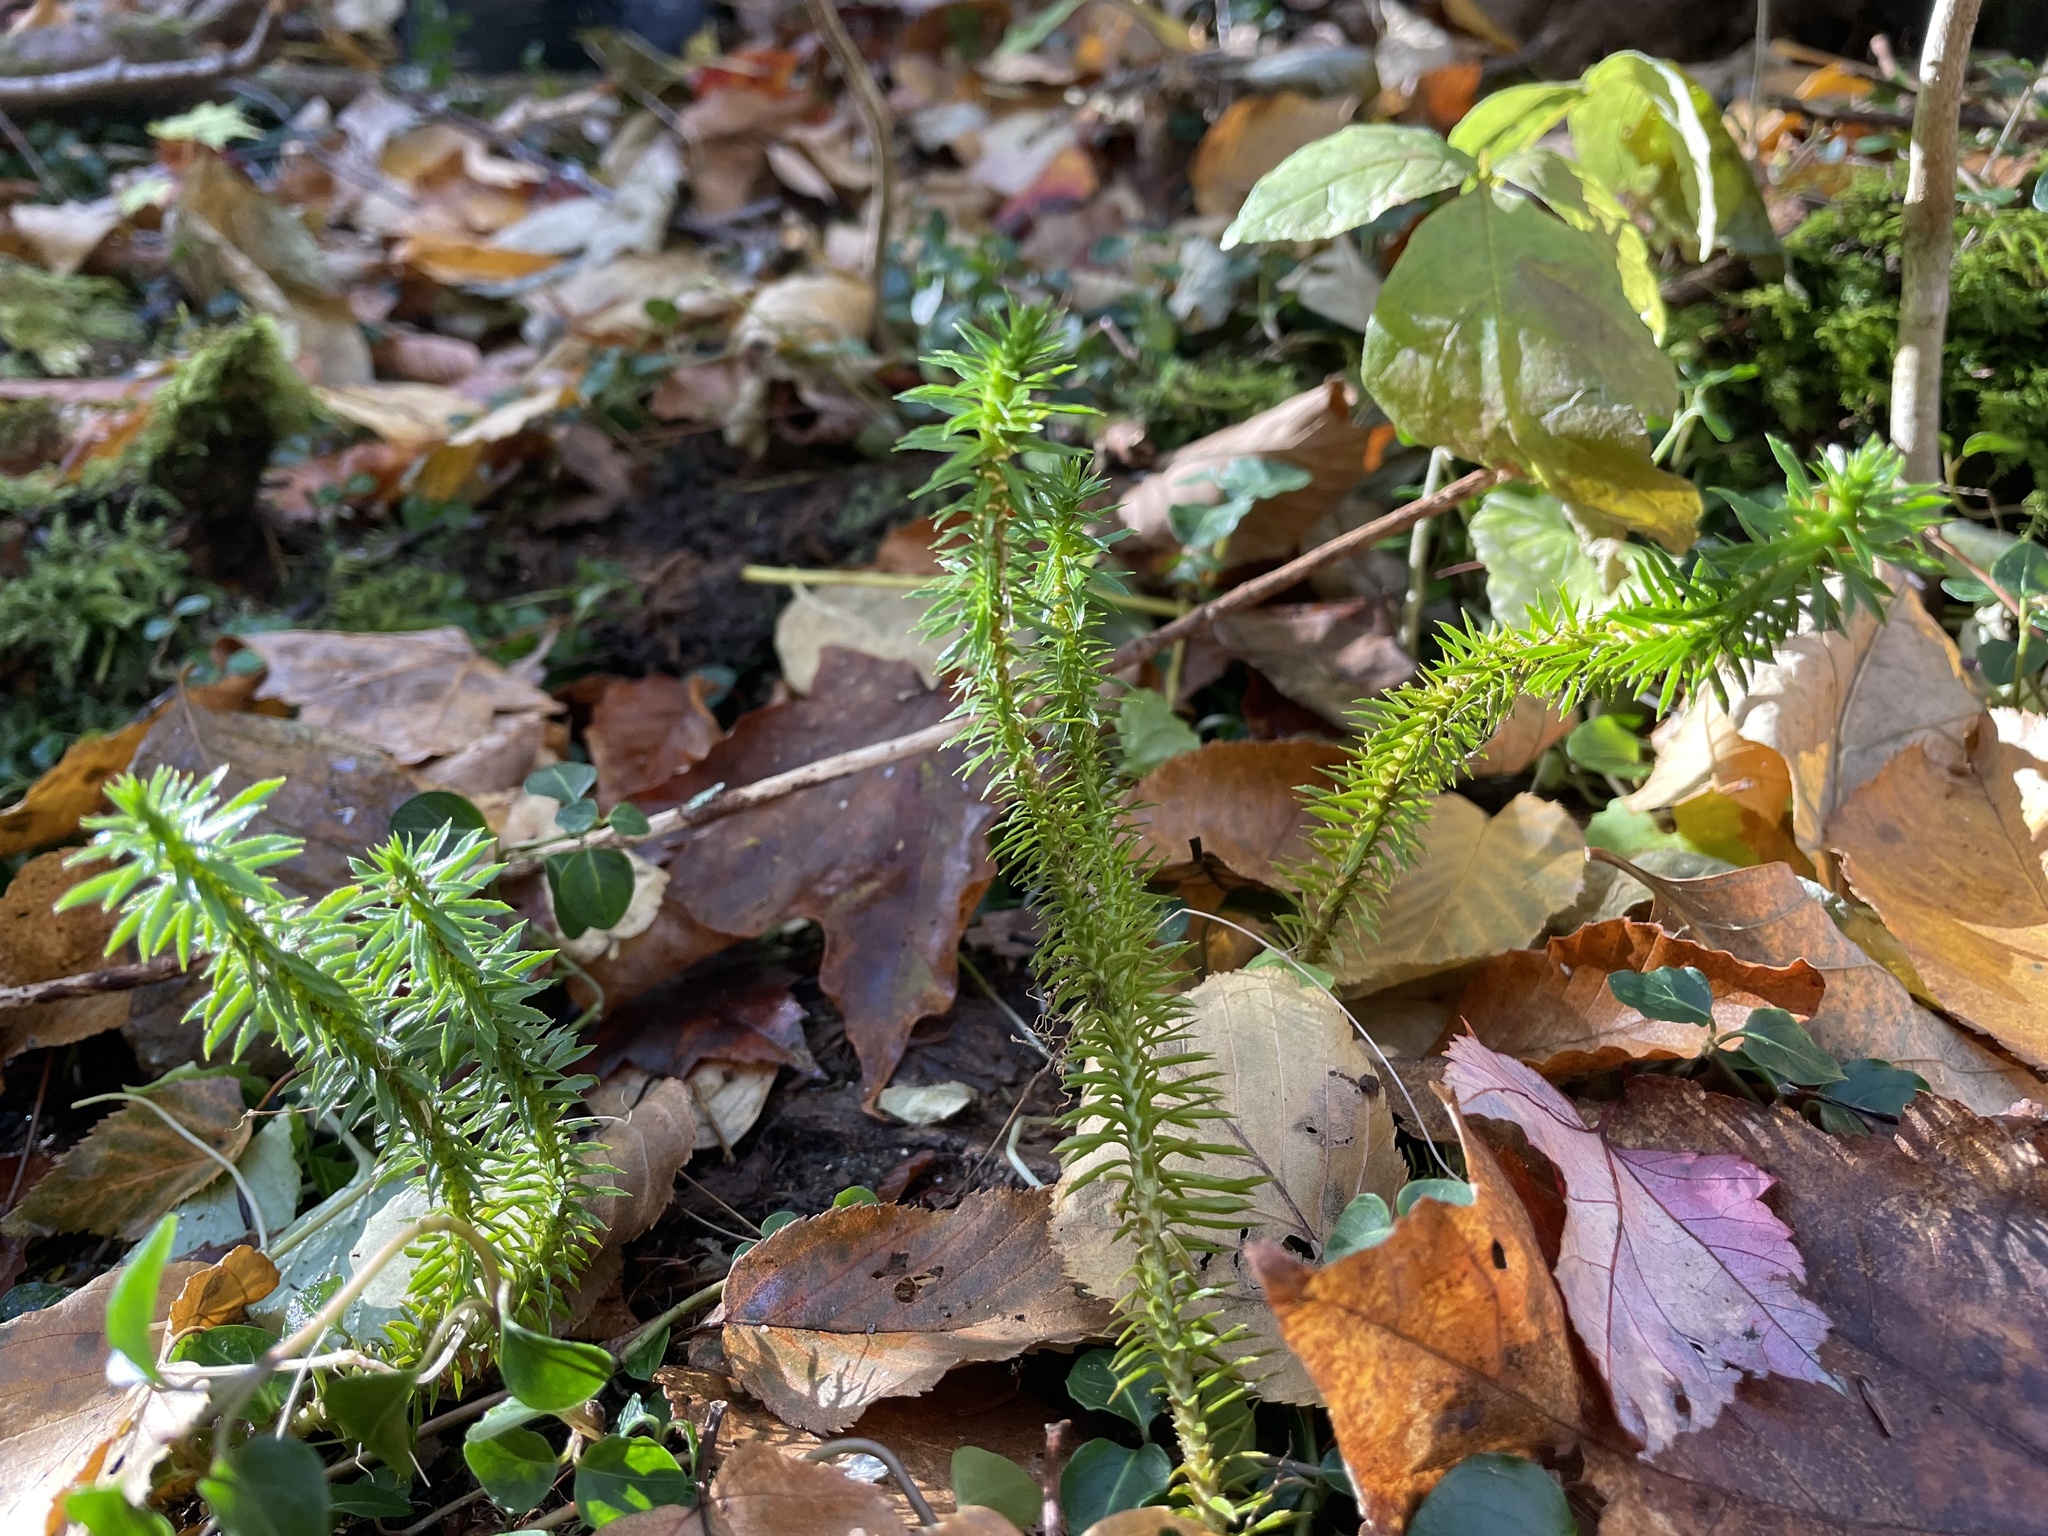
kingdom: Plantae
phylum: Tracheophyta
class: Lycopodiopsida
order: Lycopodiales
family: Lycopodiaceae
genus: Huperzia
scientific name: Huperzia lucidula
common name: Shining clubmoss
